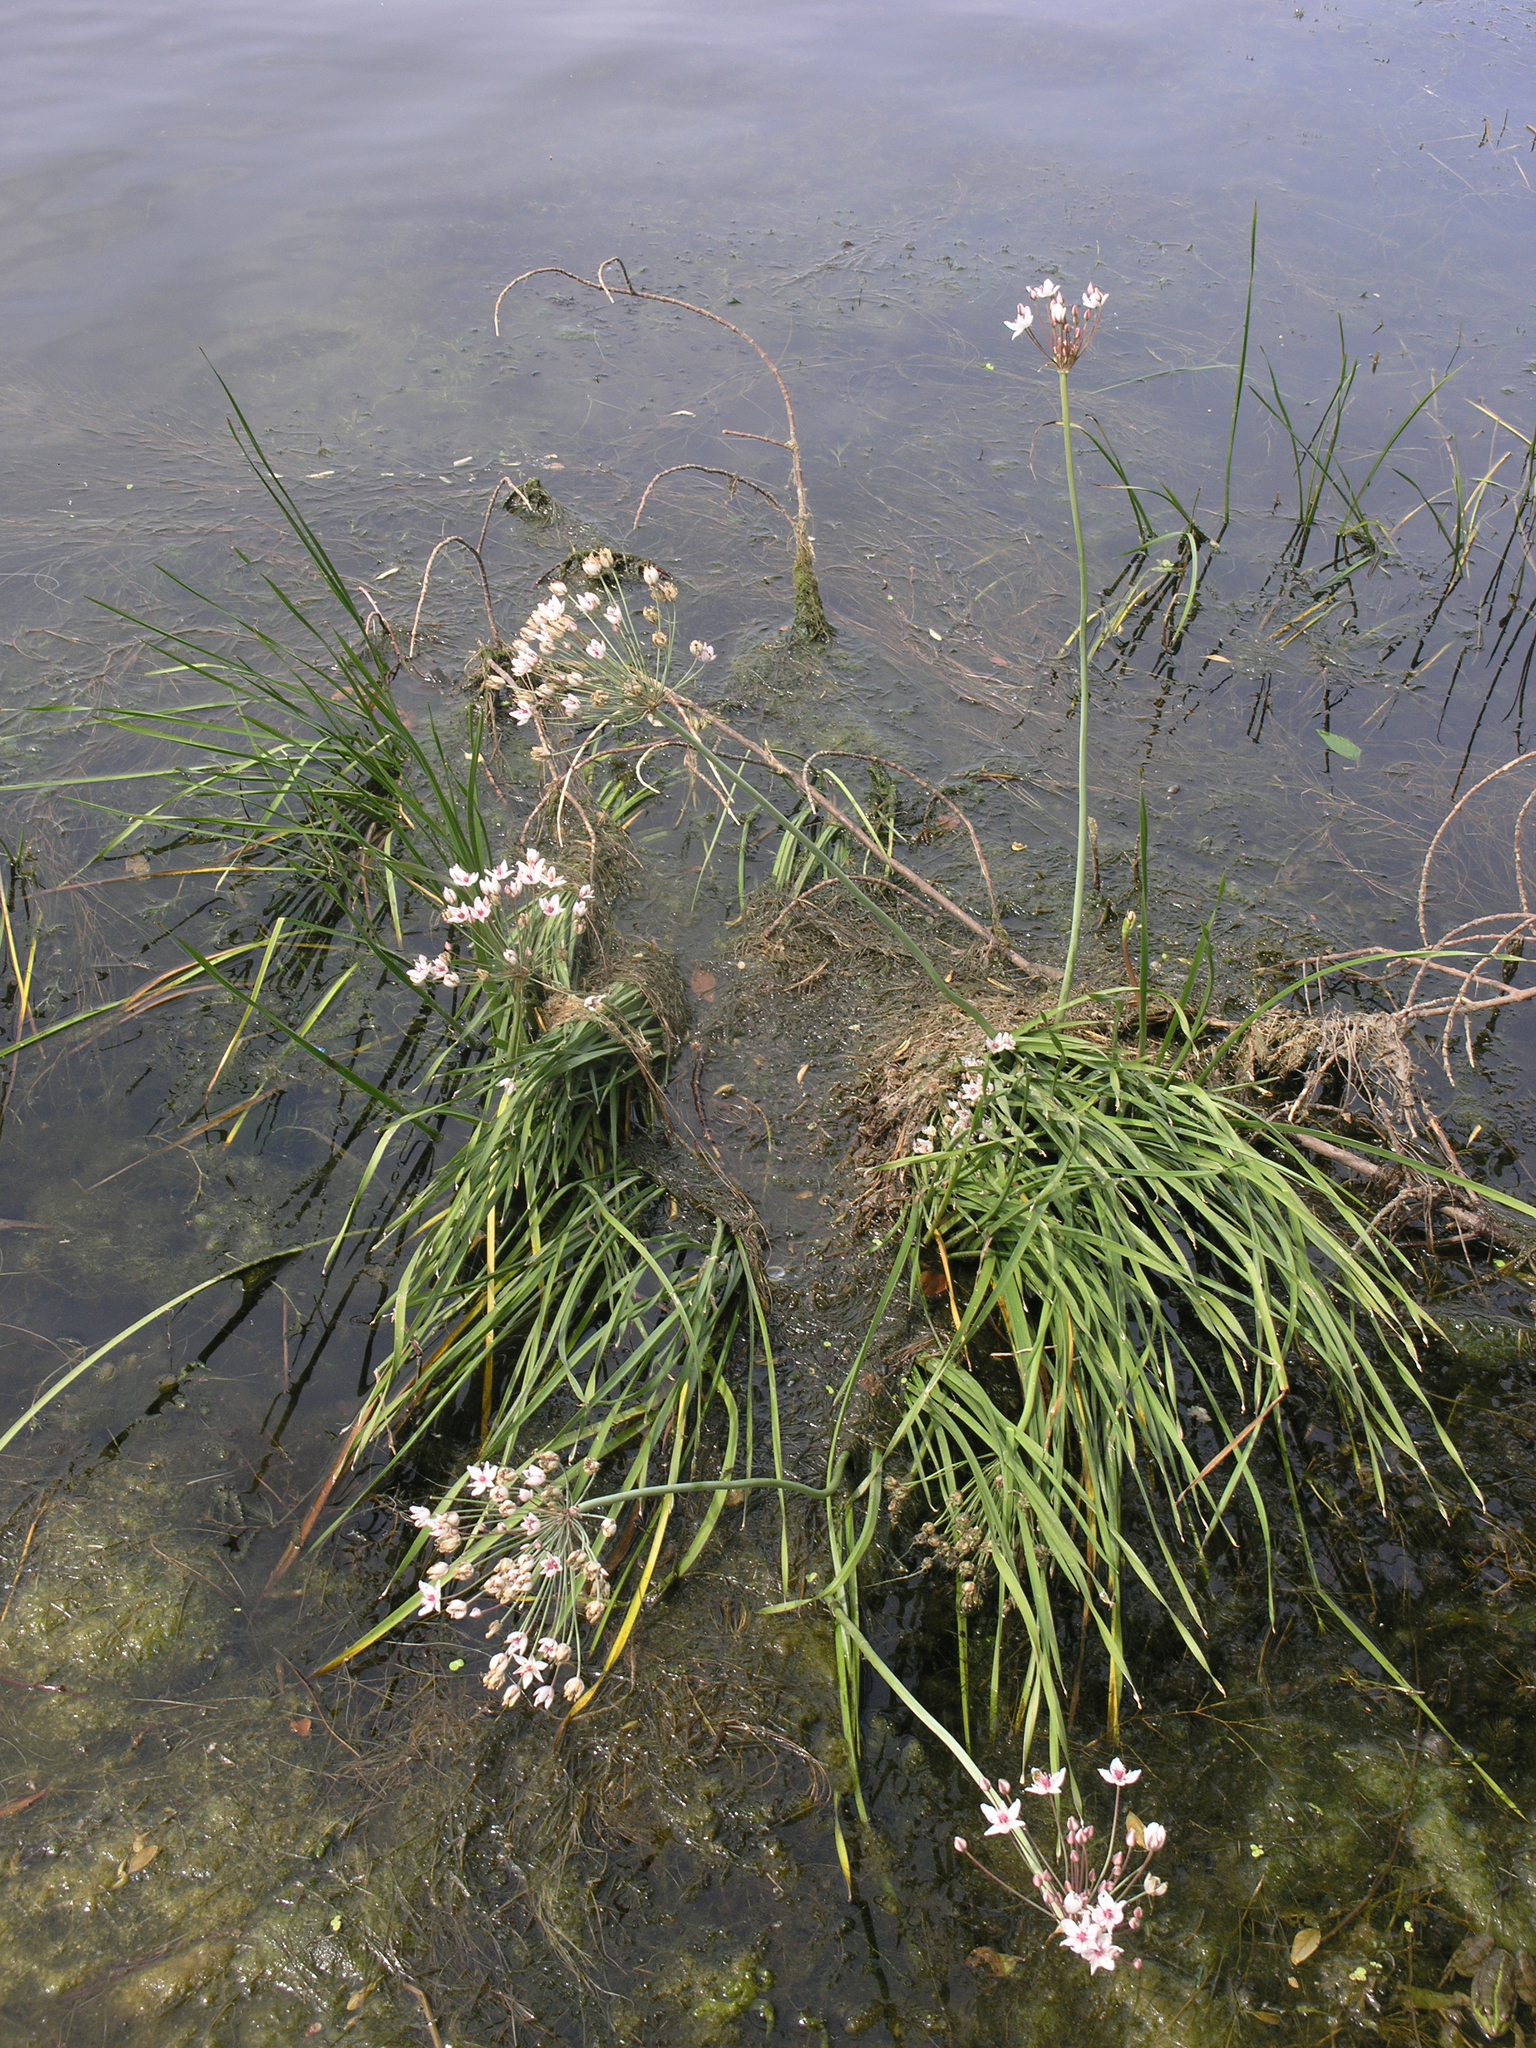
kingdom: Plantae
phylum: Tracheophyta
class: Liliopsida
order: Alismatales
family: Butomaceae
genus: Butomus
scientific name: Butomus umbellatus
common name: Flowering-rush
